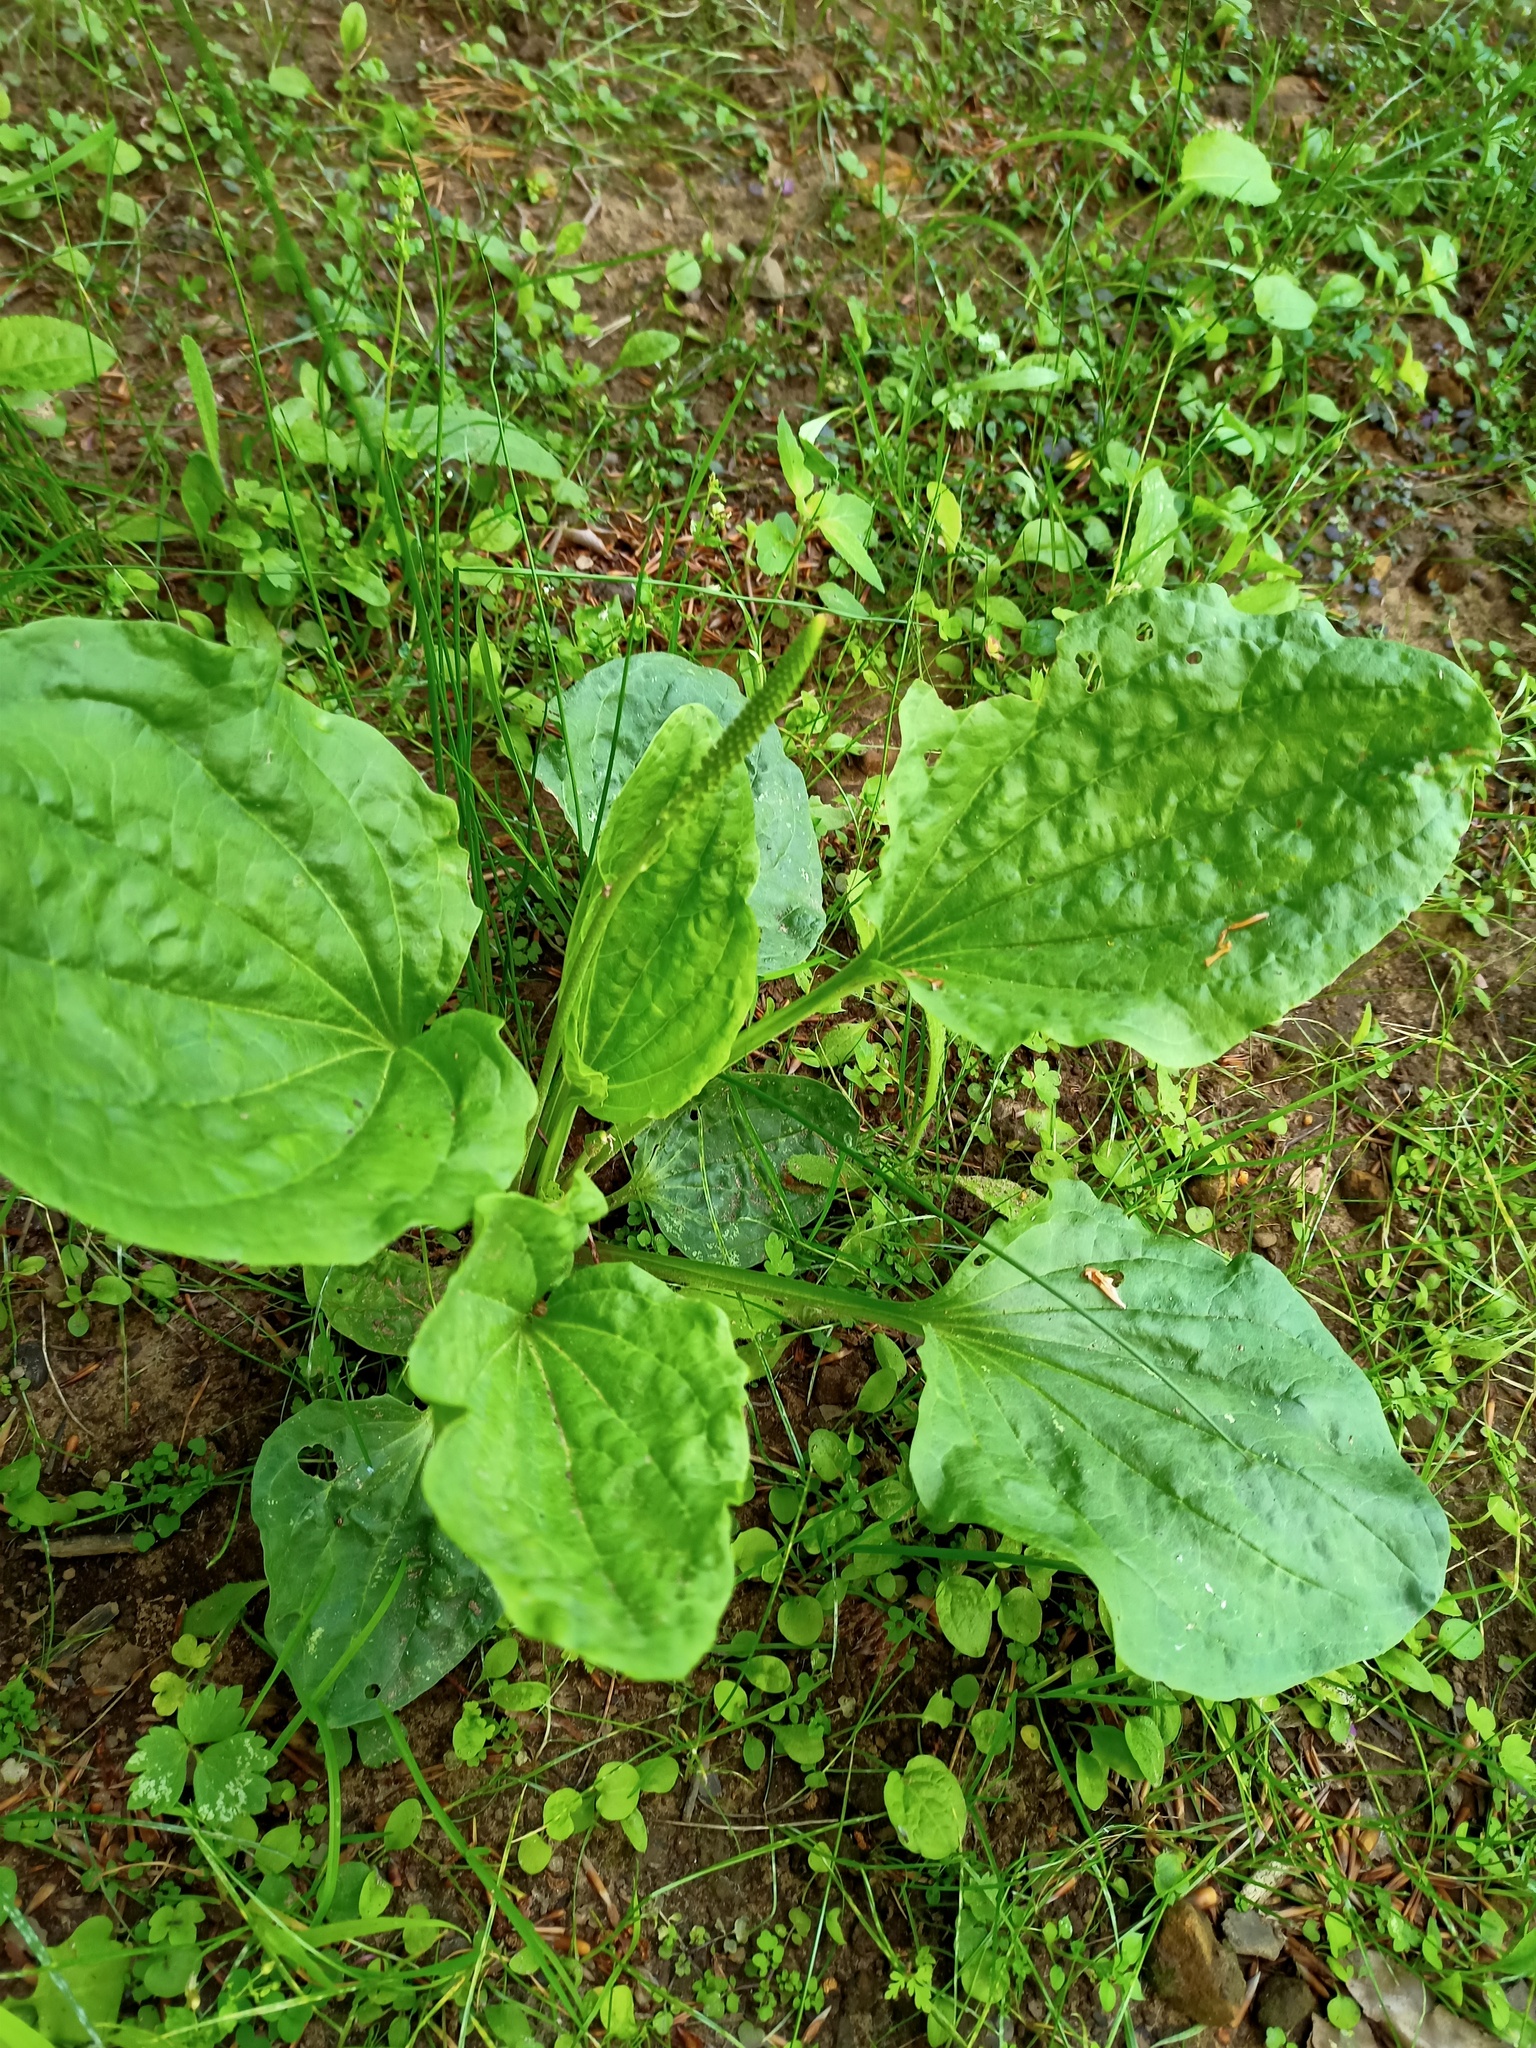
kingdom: Plantae
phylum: Tracheophyta
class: Magnoliopsida
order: Lamiales
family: Plantaginaceae
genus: Plantago
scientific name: Plantago major
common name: Common plantain
